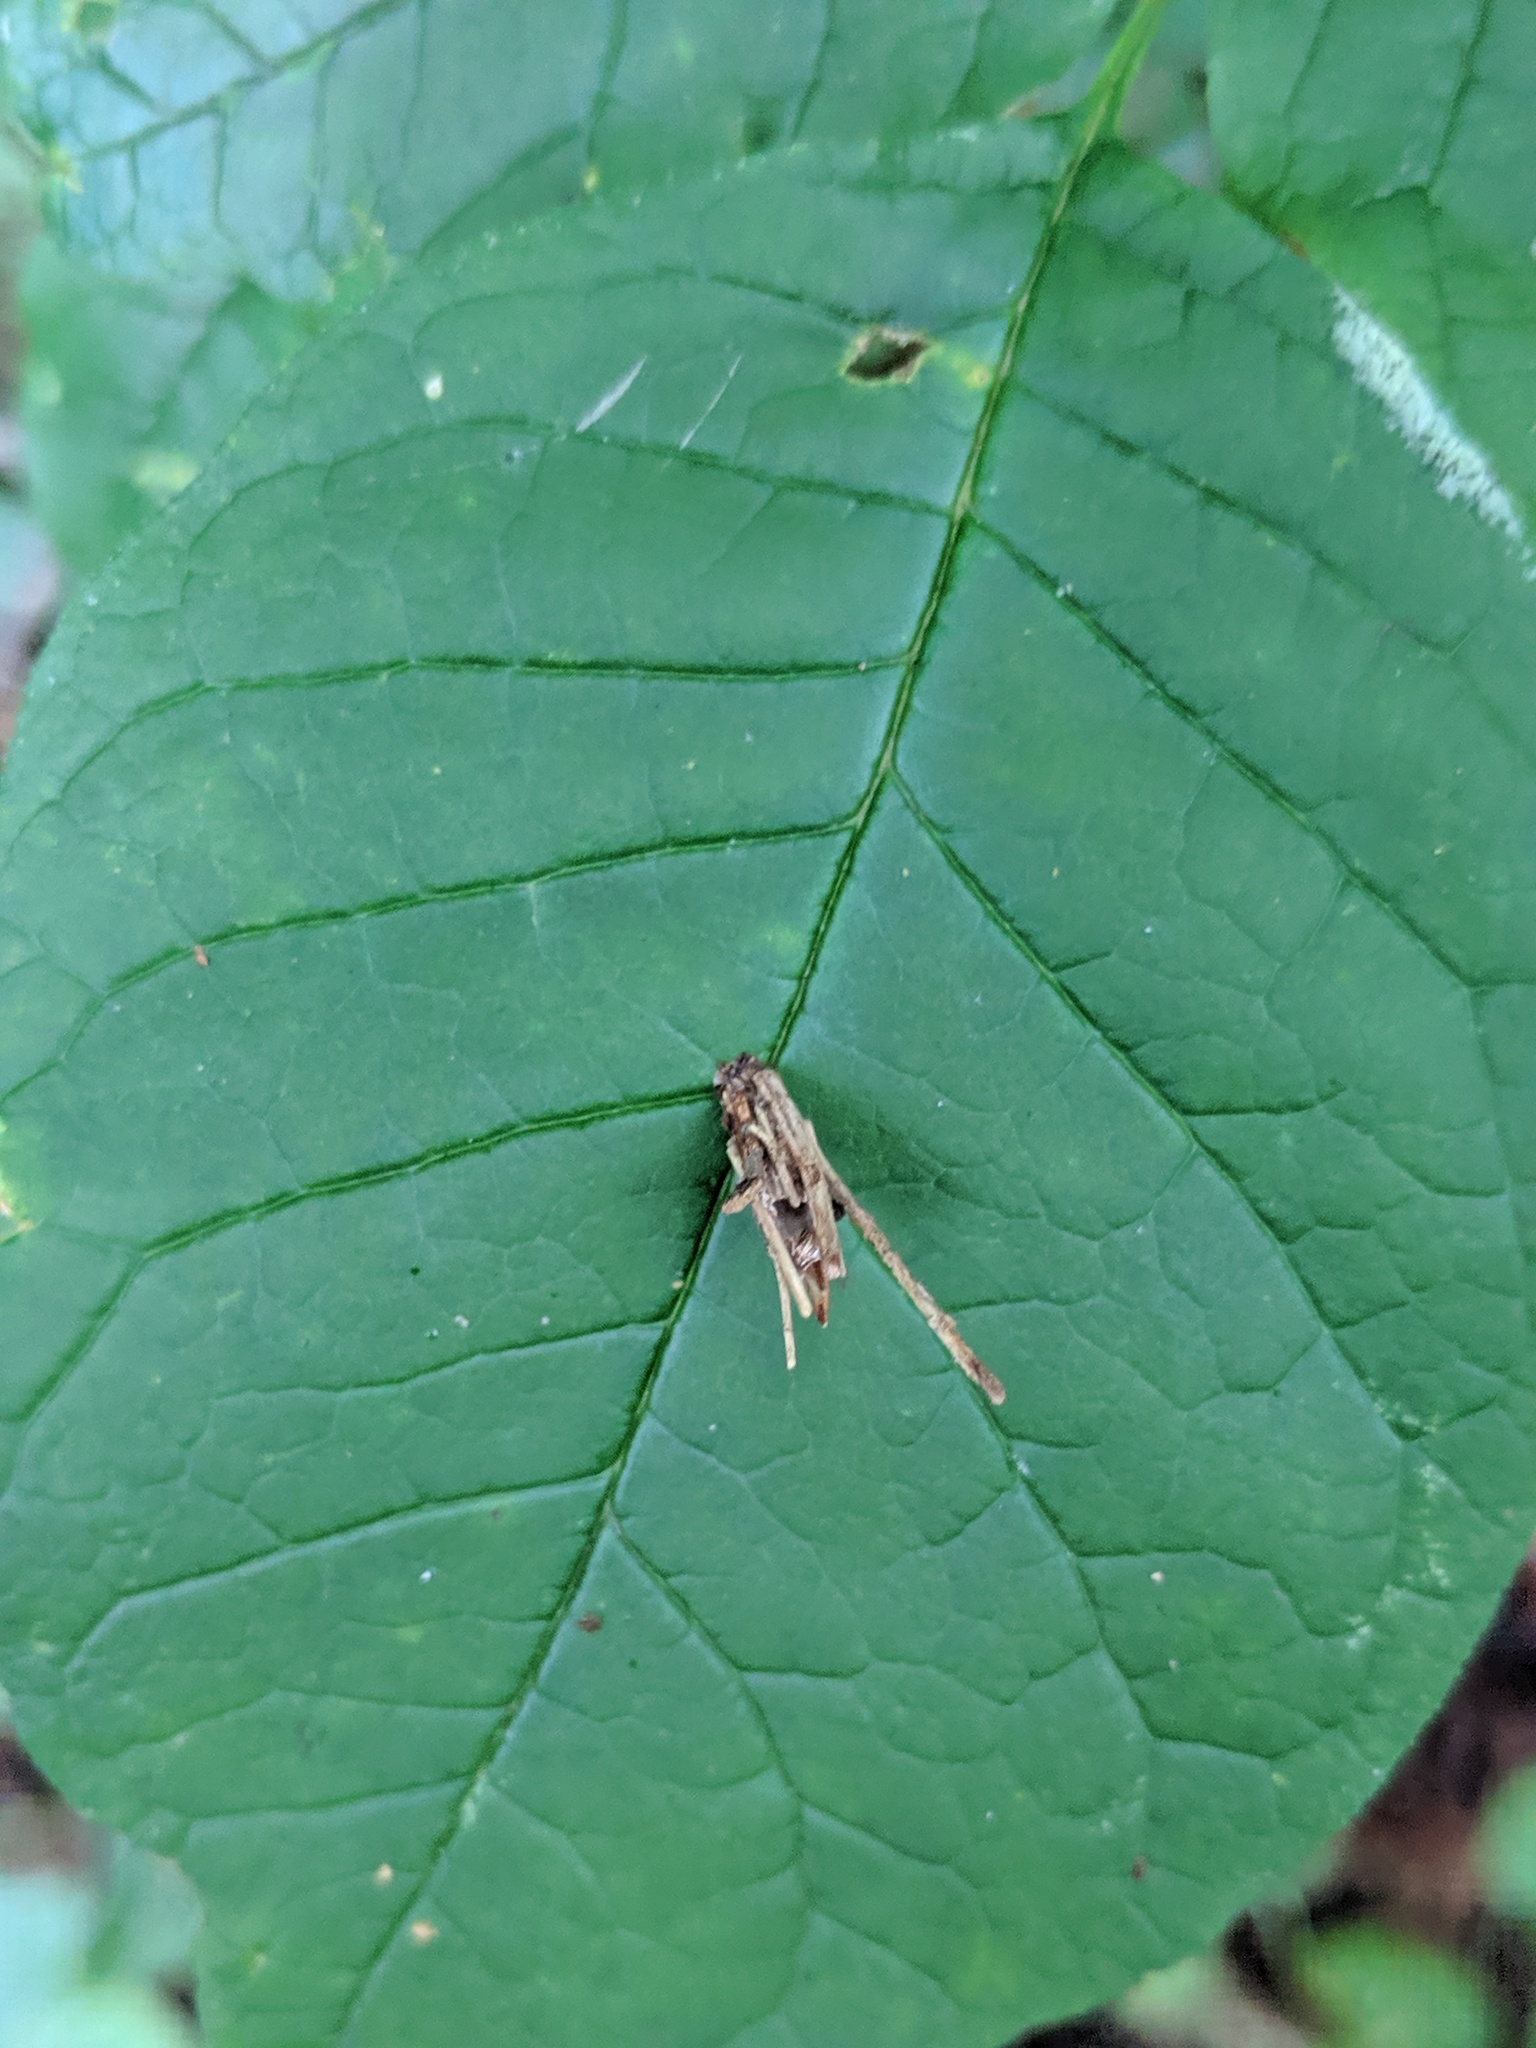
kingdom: Animalia
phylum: Arthropoda
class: Insecta
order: Lepidoptera
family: Psychidae
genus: Psyche
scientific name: Psyche casta
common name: Common sweep
